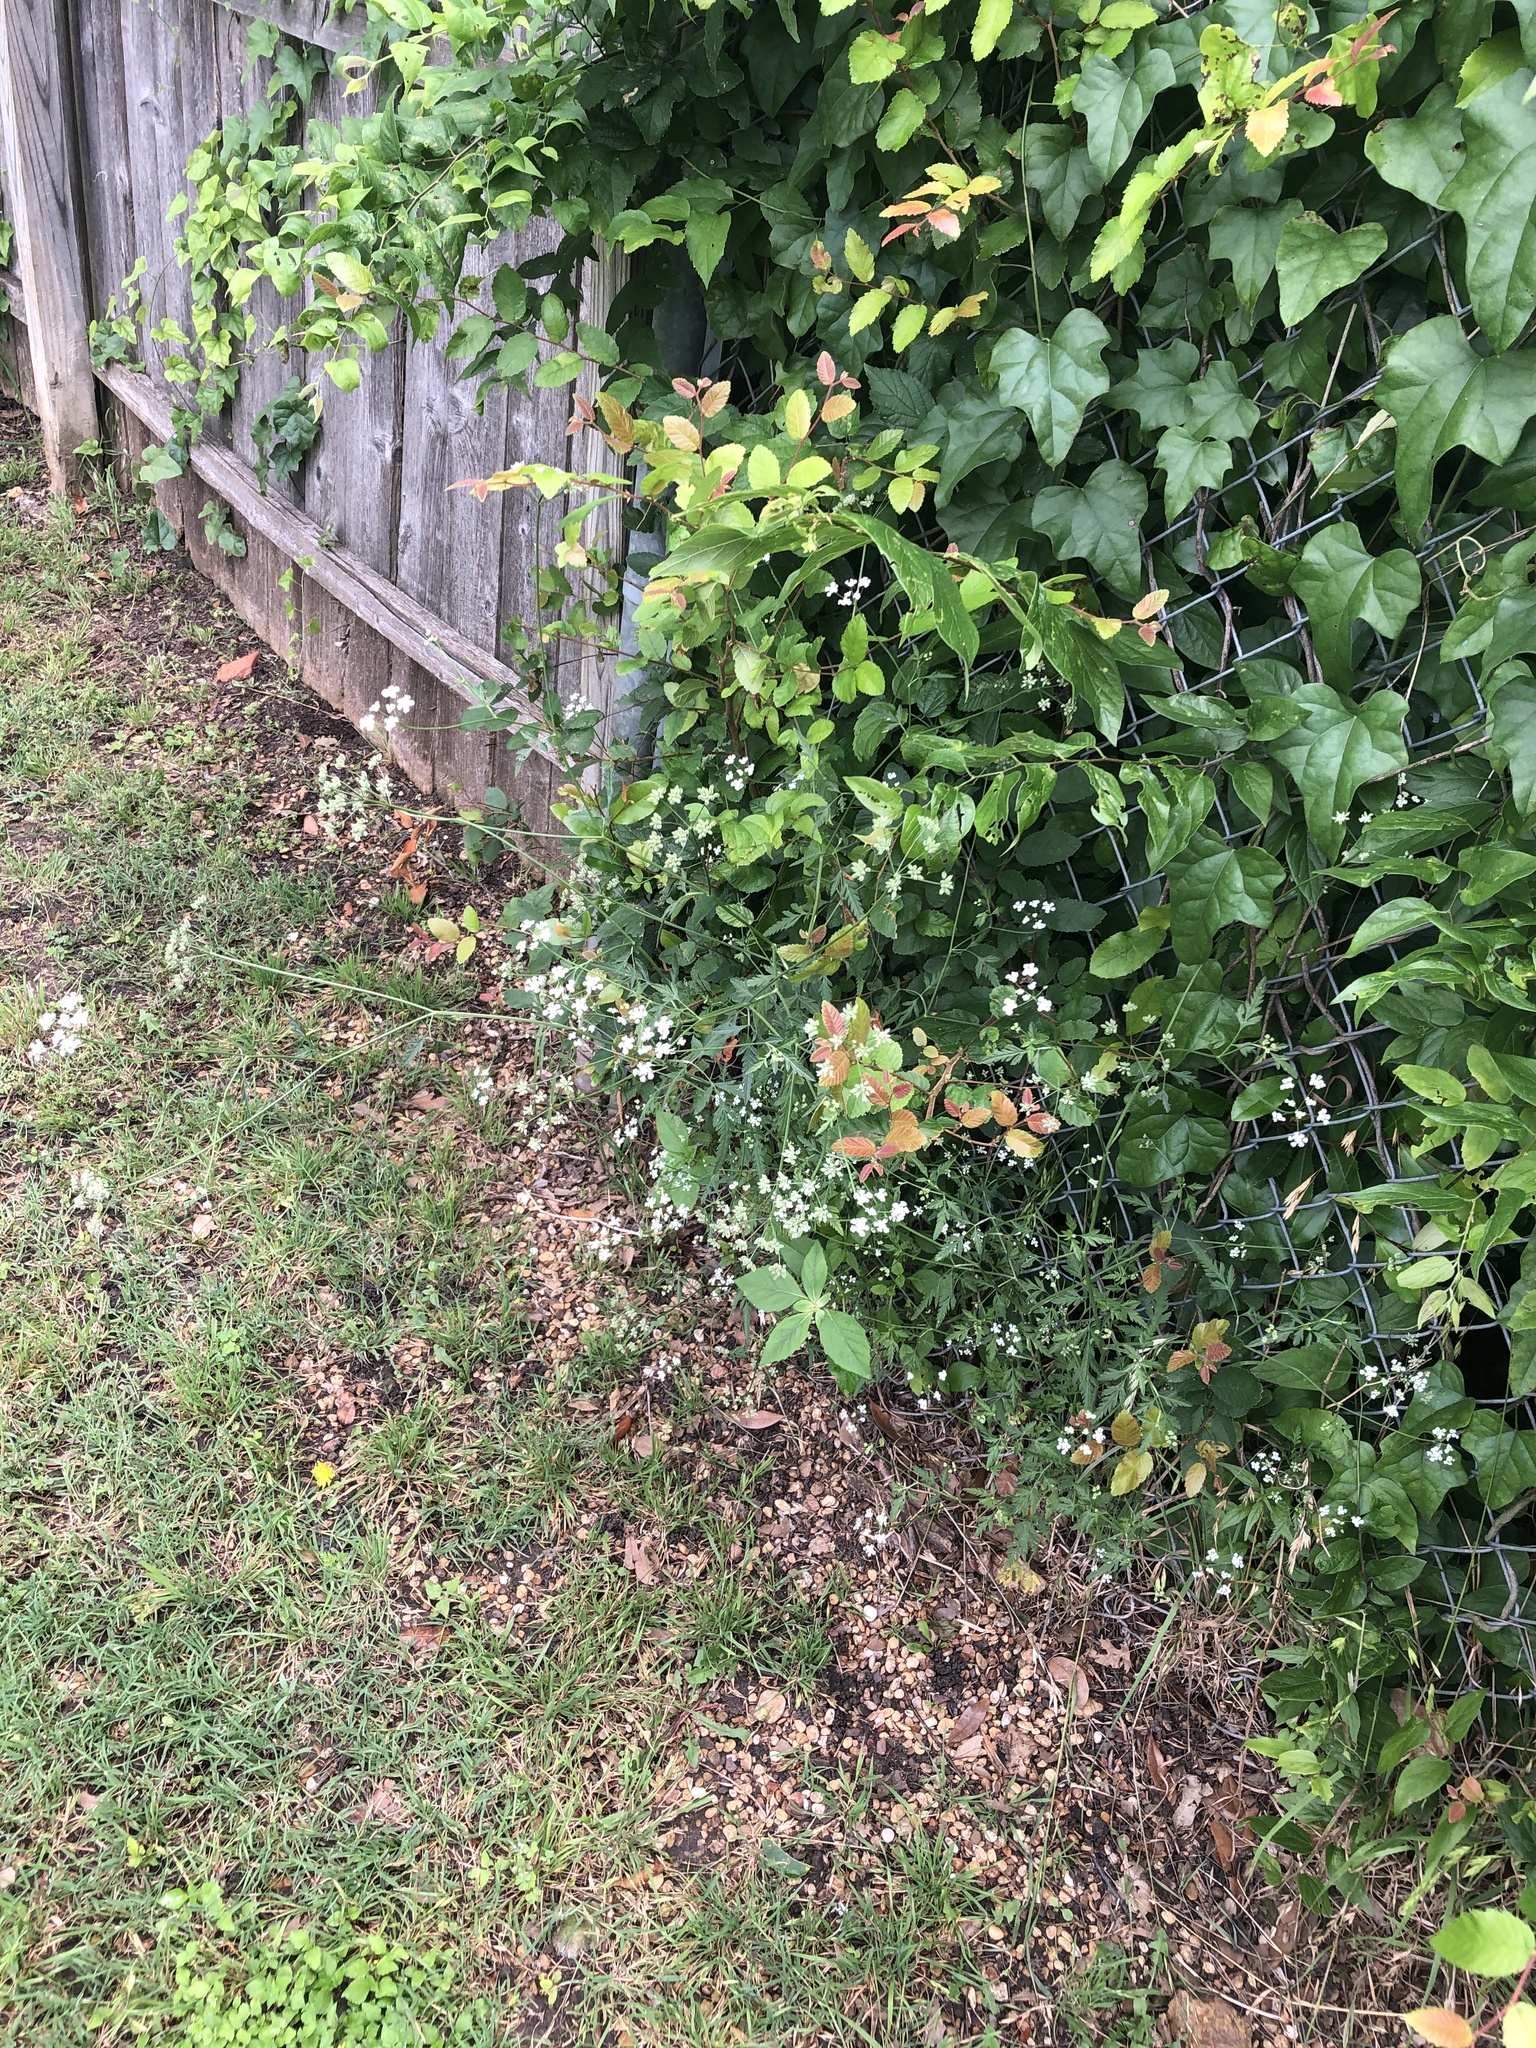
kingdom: Plantae
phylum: Tracheophyta
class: Magnoliopsida
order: Apiales
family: Apiaceae
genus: Torilis
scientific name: Torilis arvensis
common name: Spreading hedge-parsley
